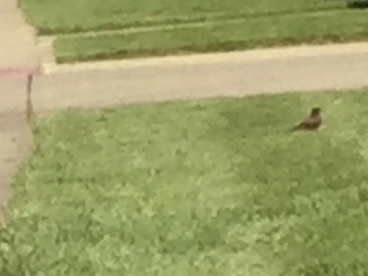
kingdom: Animalia
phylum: Chordata
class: Aves
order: Passeriformes
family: Turdidae
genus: Turdus
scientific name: Turdus migratorius
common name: American robin
